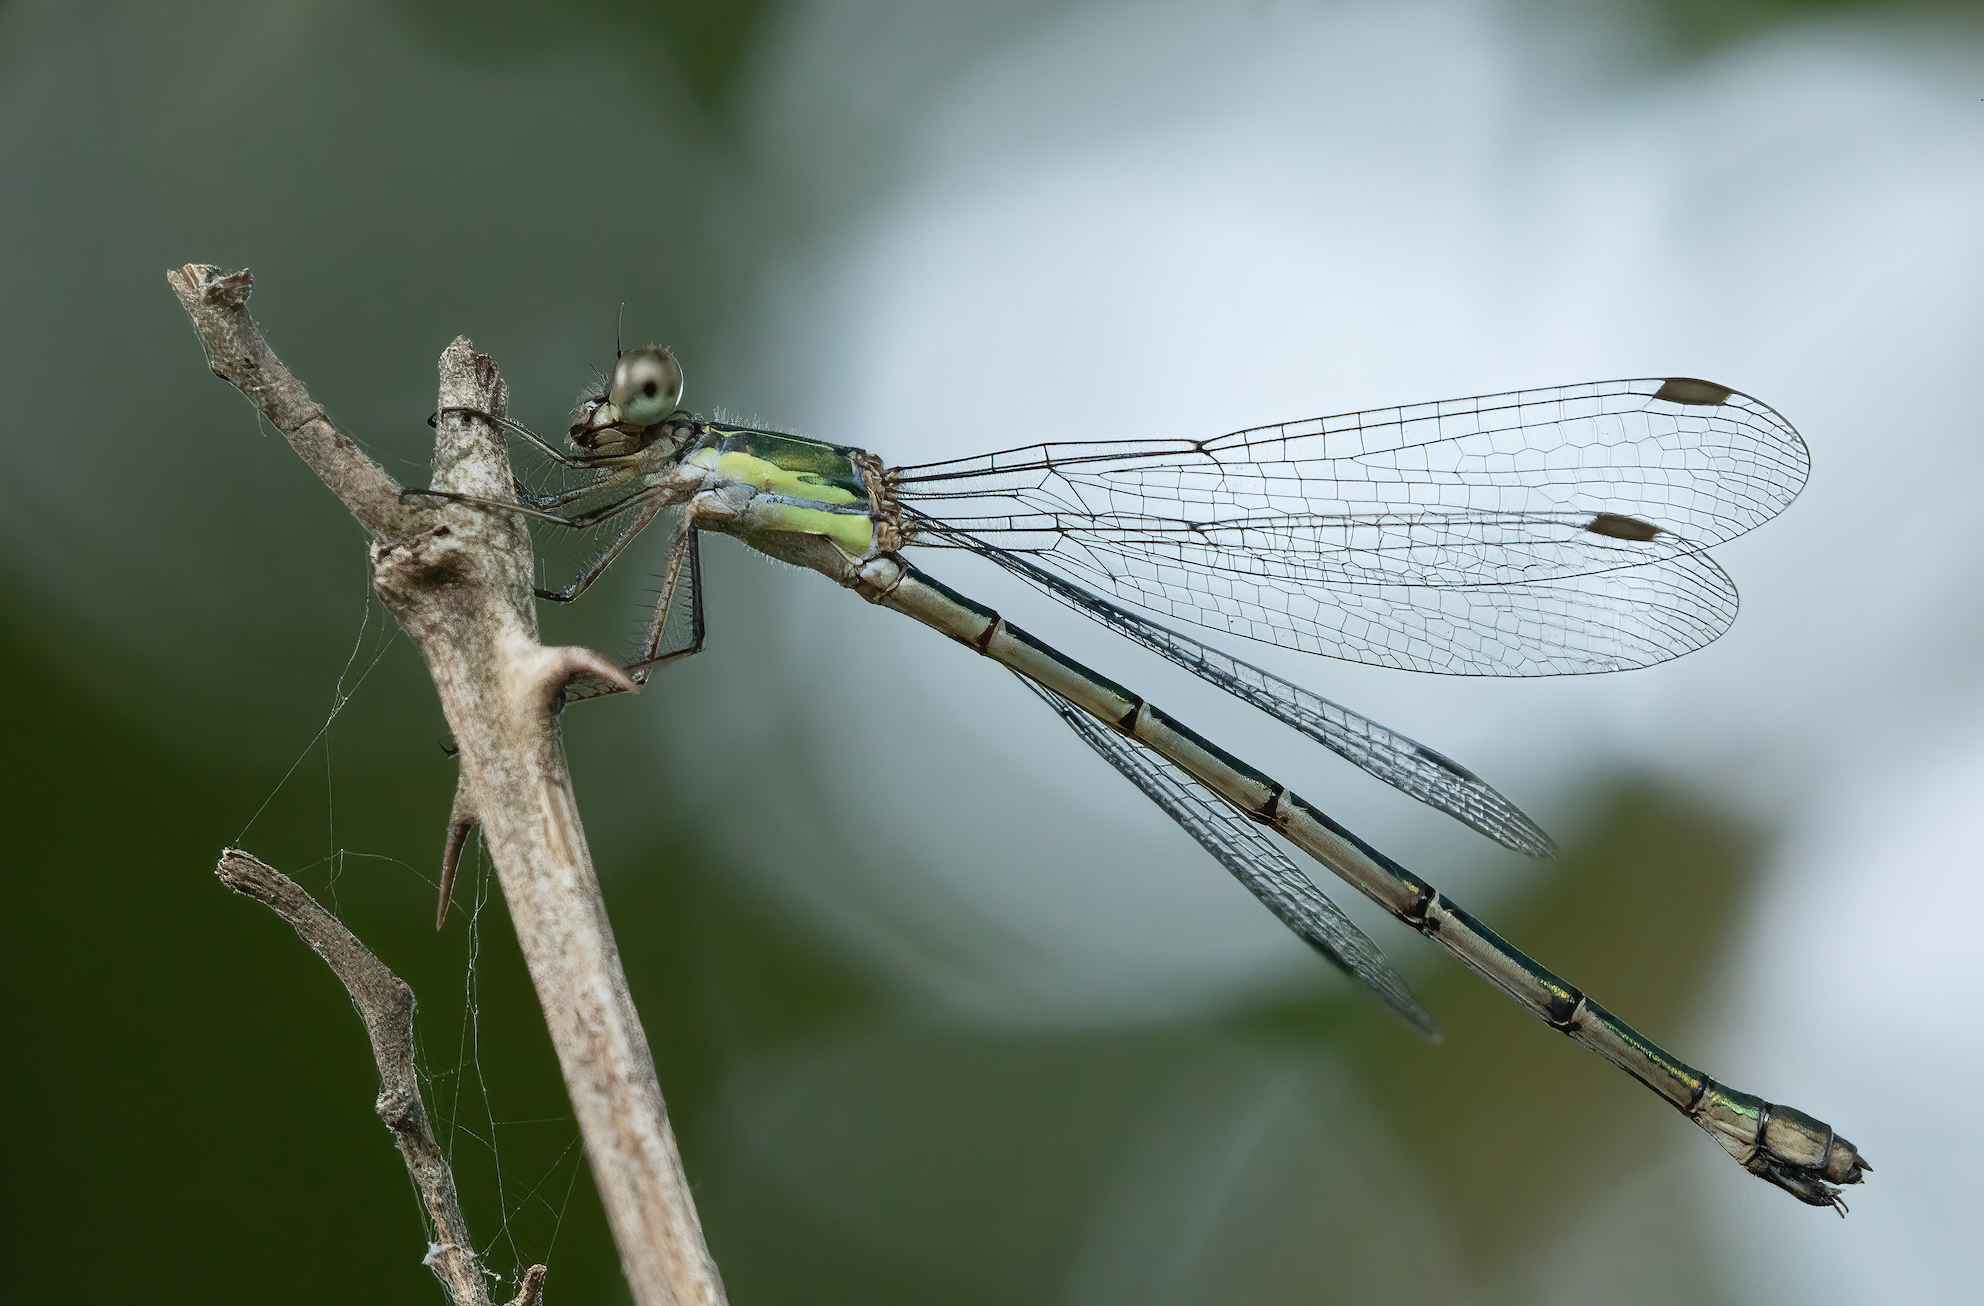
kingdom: Animalia
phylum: Arthropoda
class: Insecta
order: Odonata
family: Lestidae
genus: Chalcolestes
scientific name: Chalcolestes viridis
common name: Green emerald damselfly
